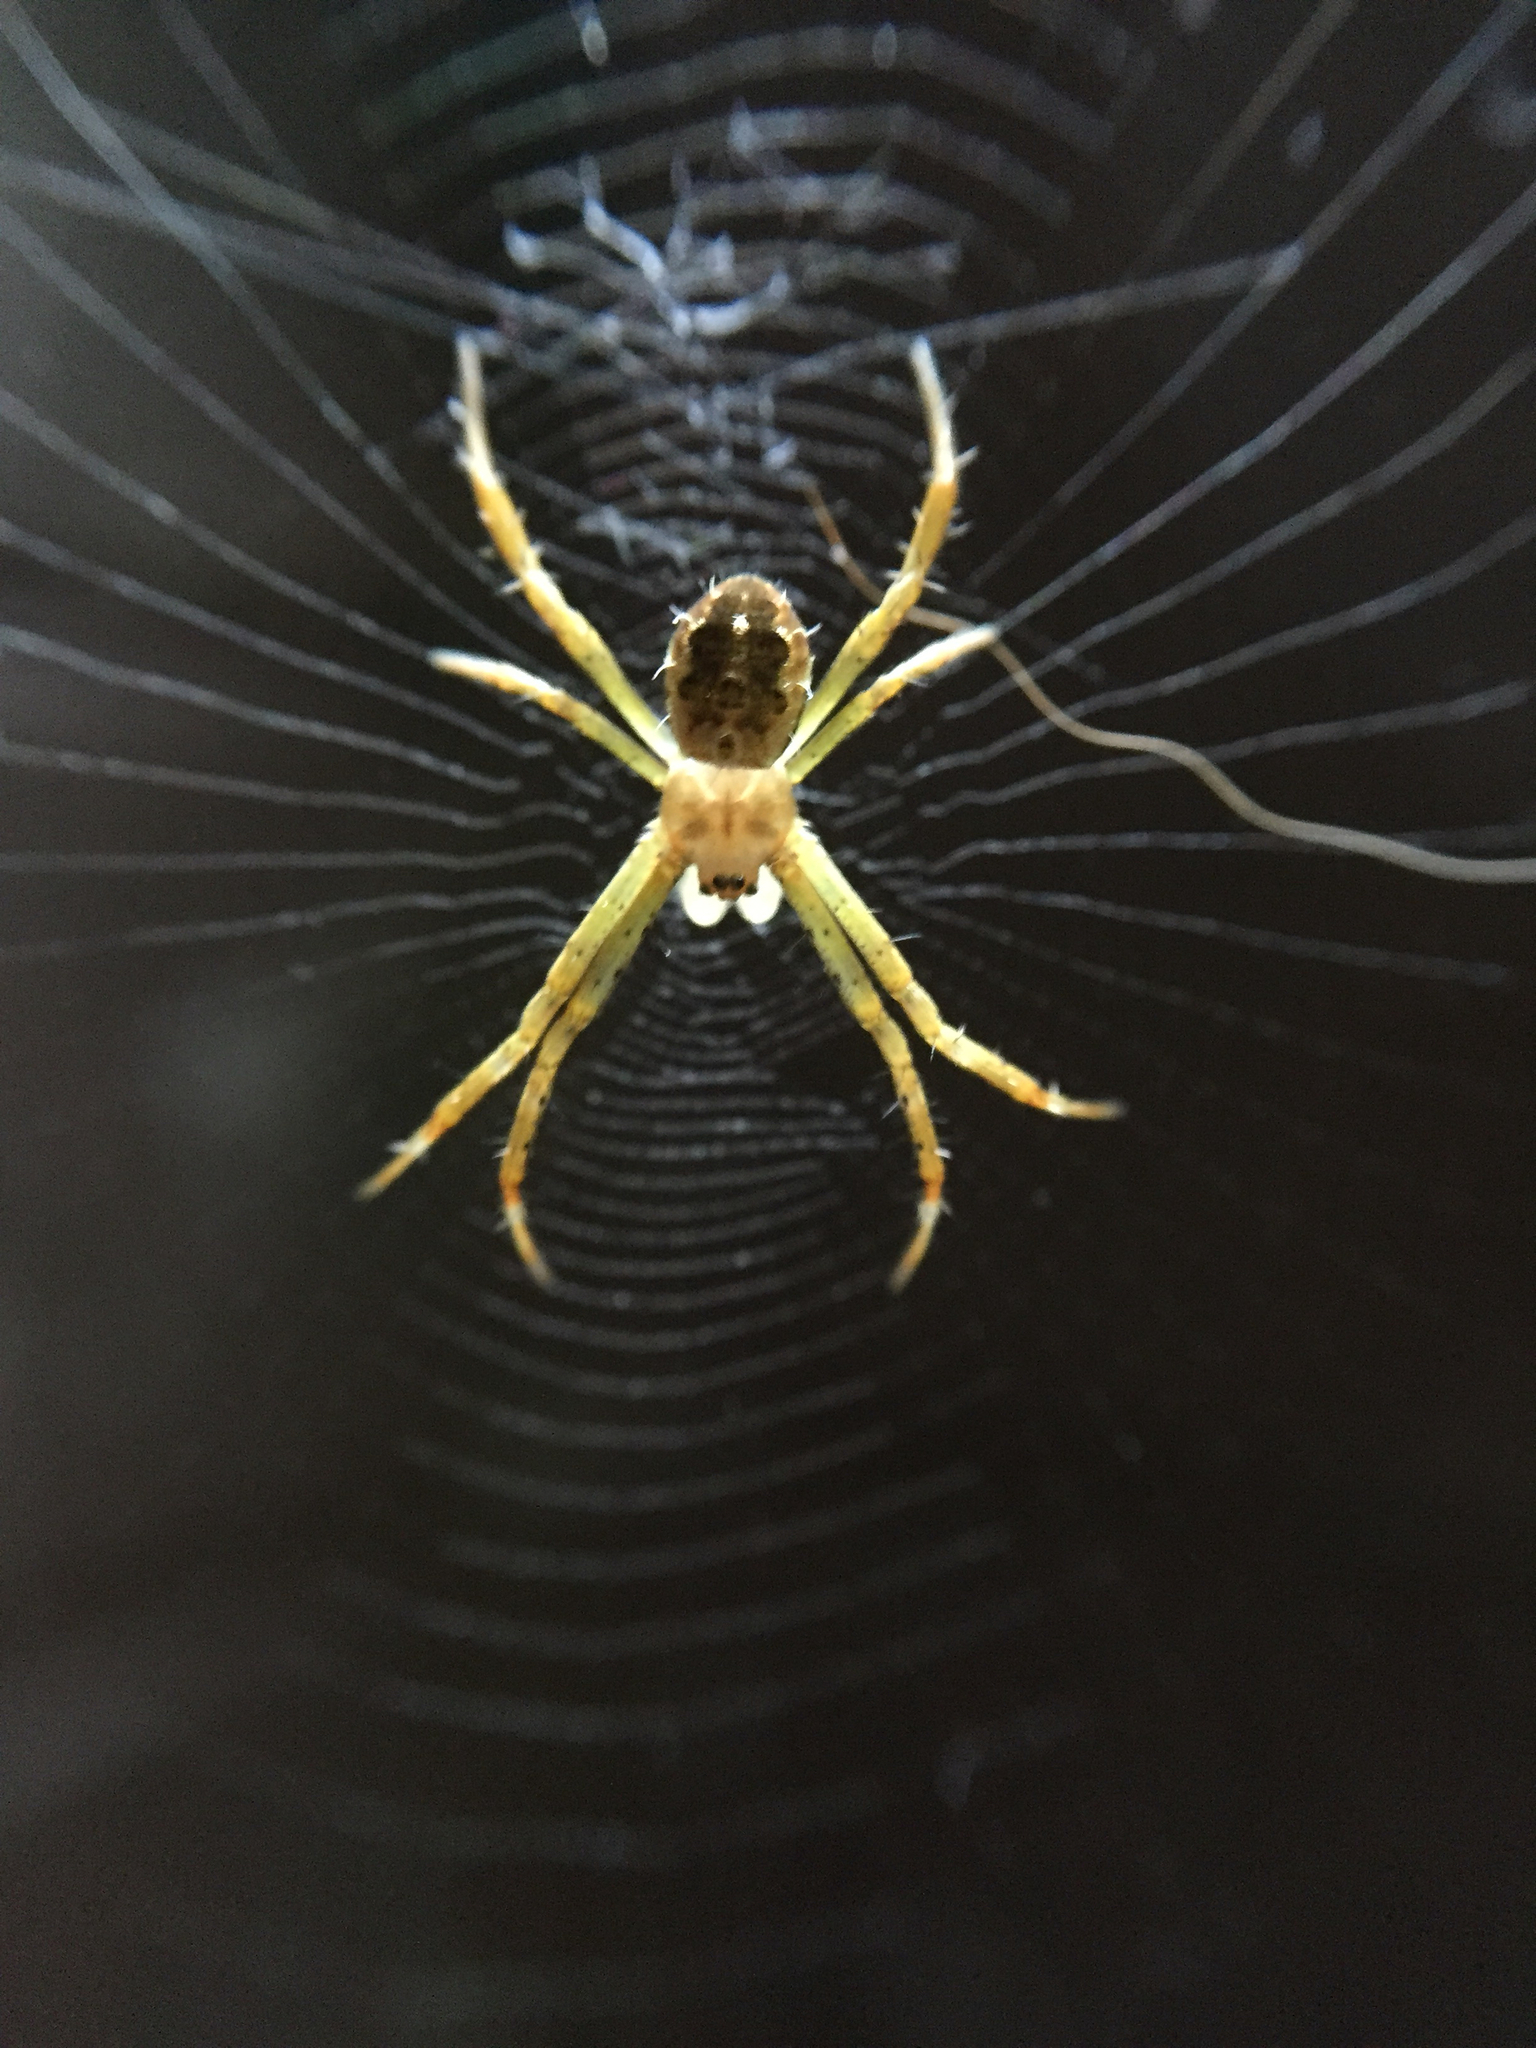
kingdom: Animalia
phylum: Arthropoda
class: Arachnida
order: Araneae
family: Araneidae
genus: Argiope
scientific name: Argiope appensa
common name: Garden spider
